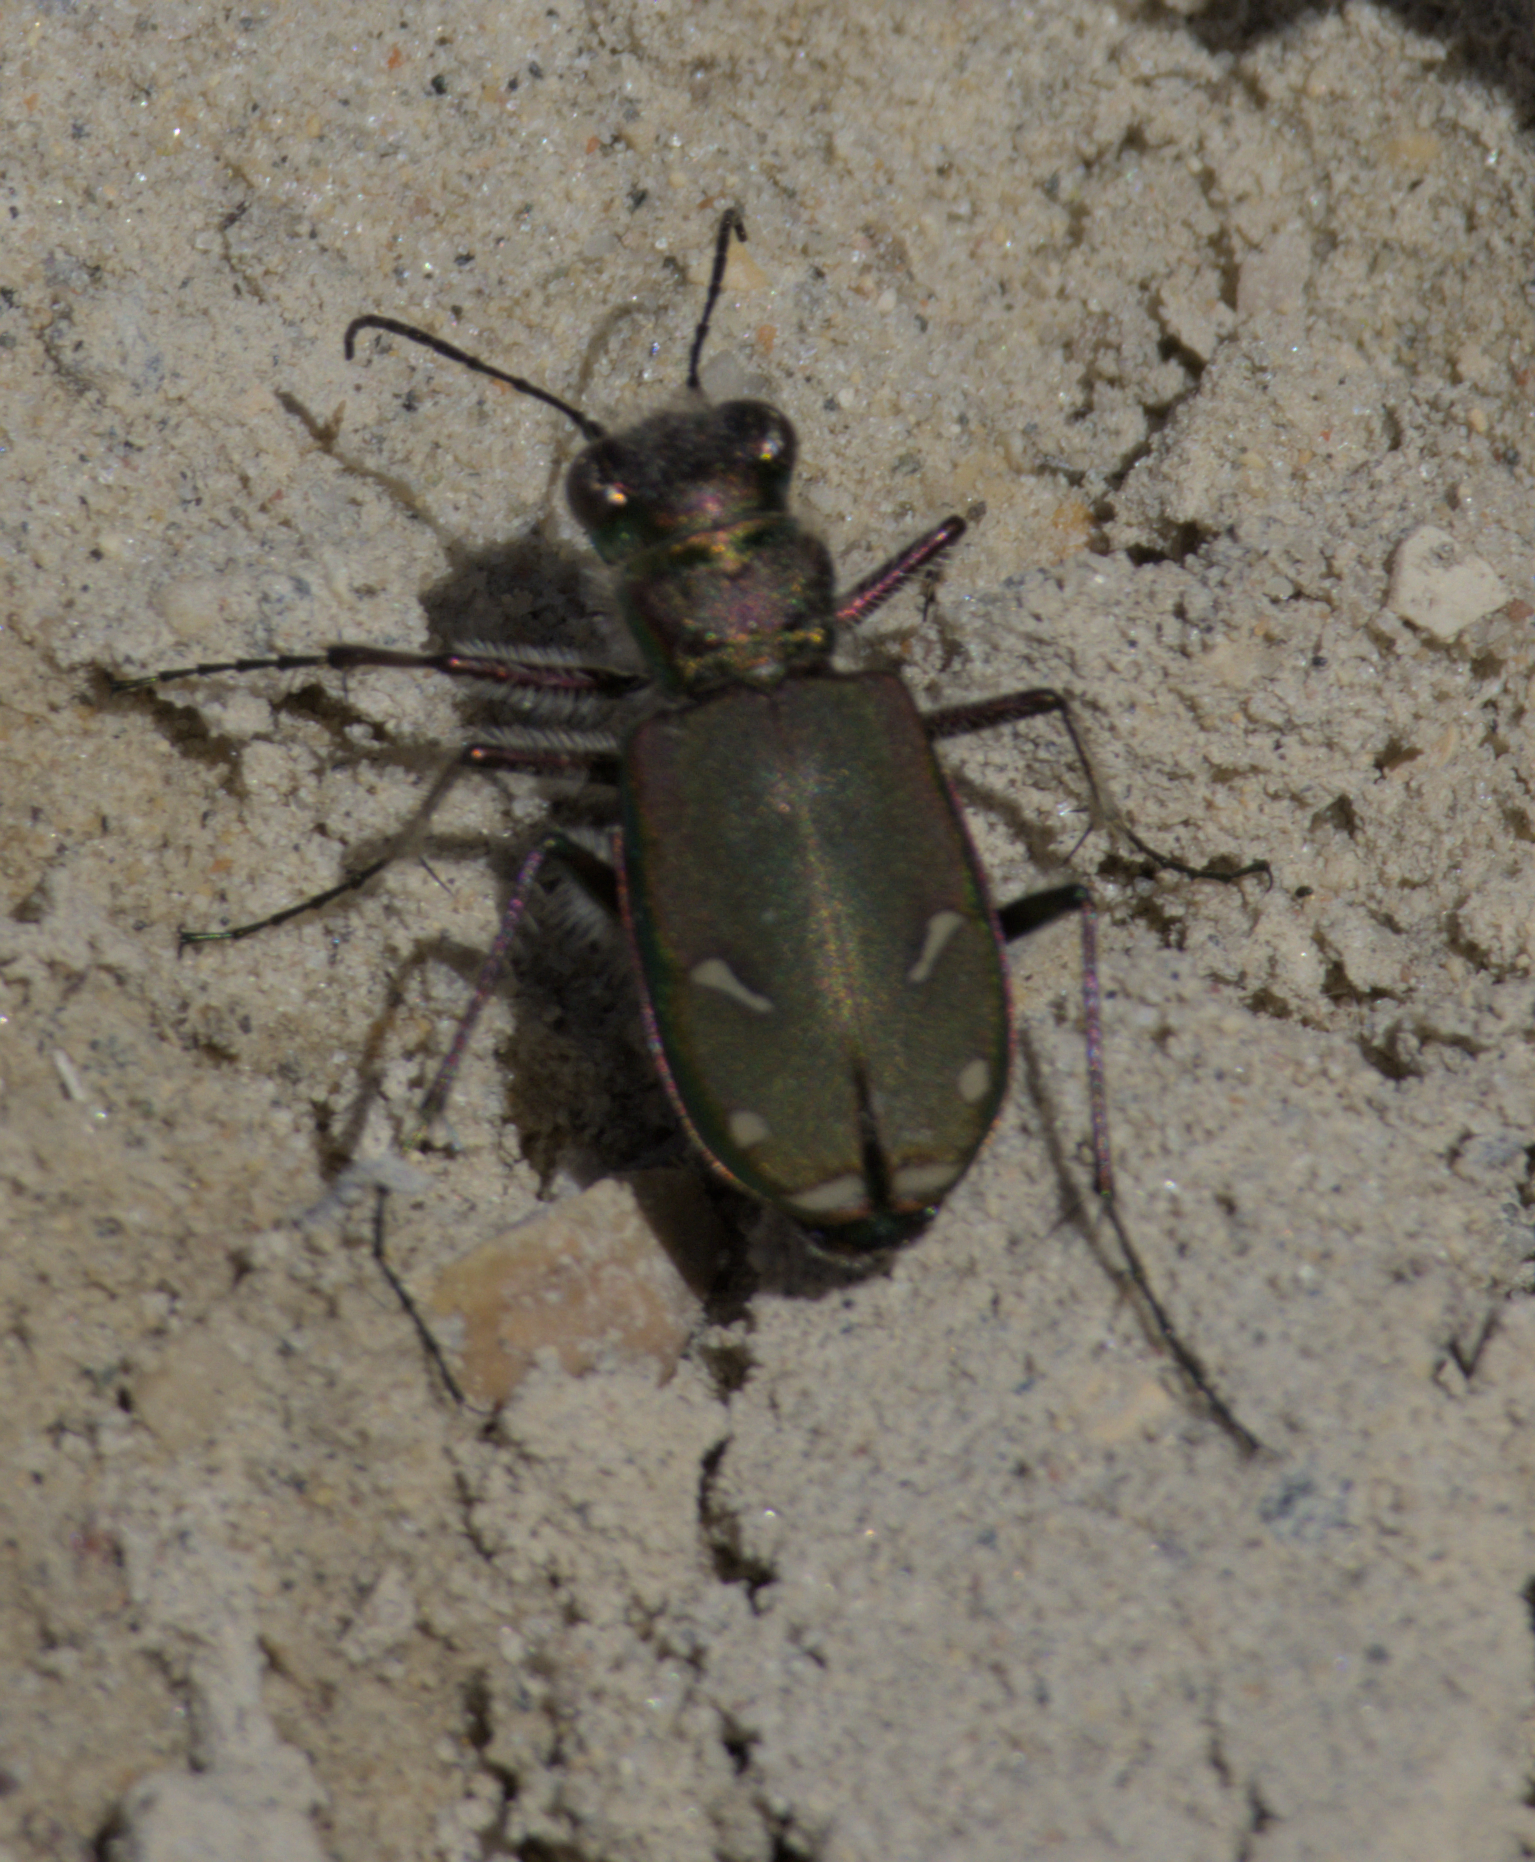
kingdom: Animalia
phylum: Arthropoda
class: Insecta
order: Coleoptera
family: Carabidae
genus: Cicindela
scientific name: Cicindela purpurea
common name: Cow path tiger beetle
